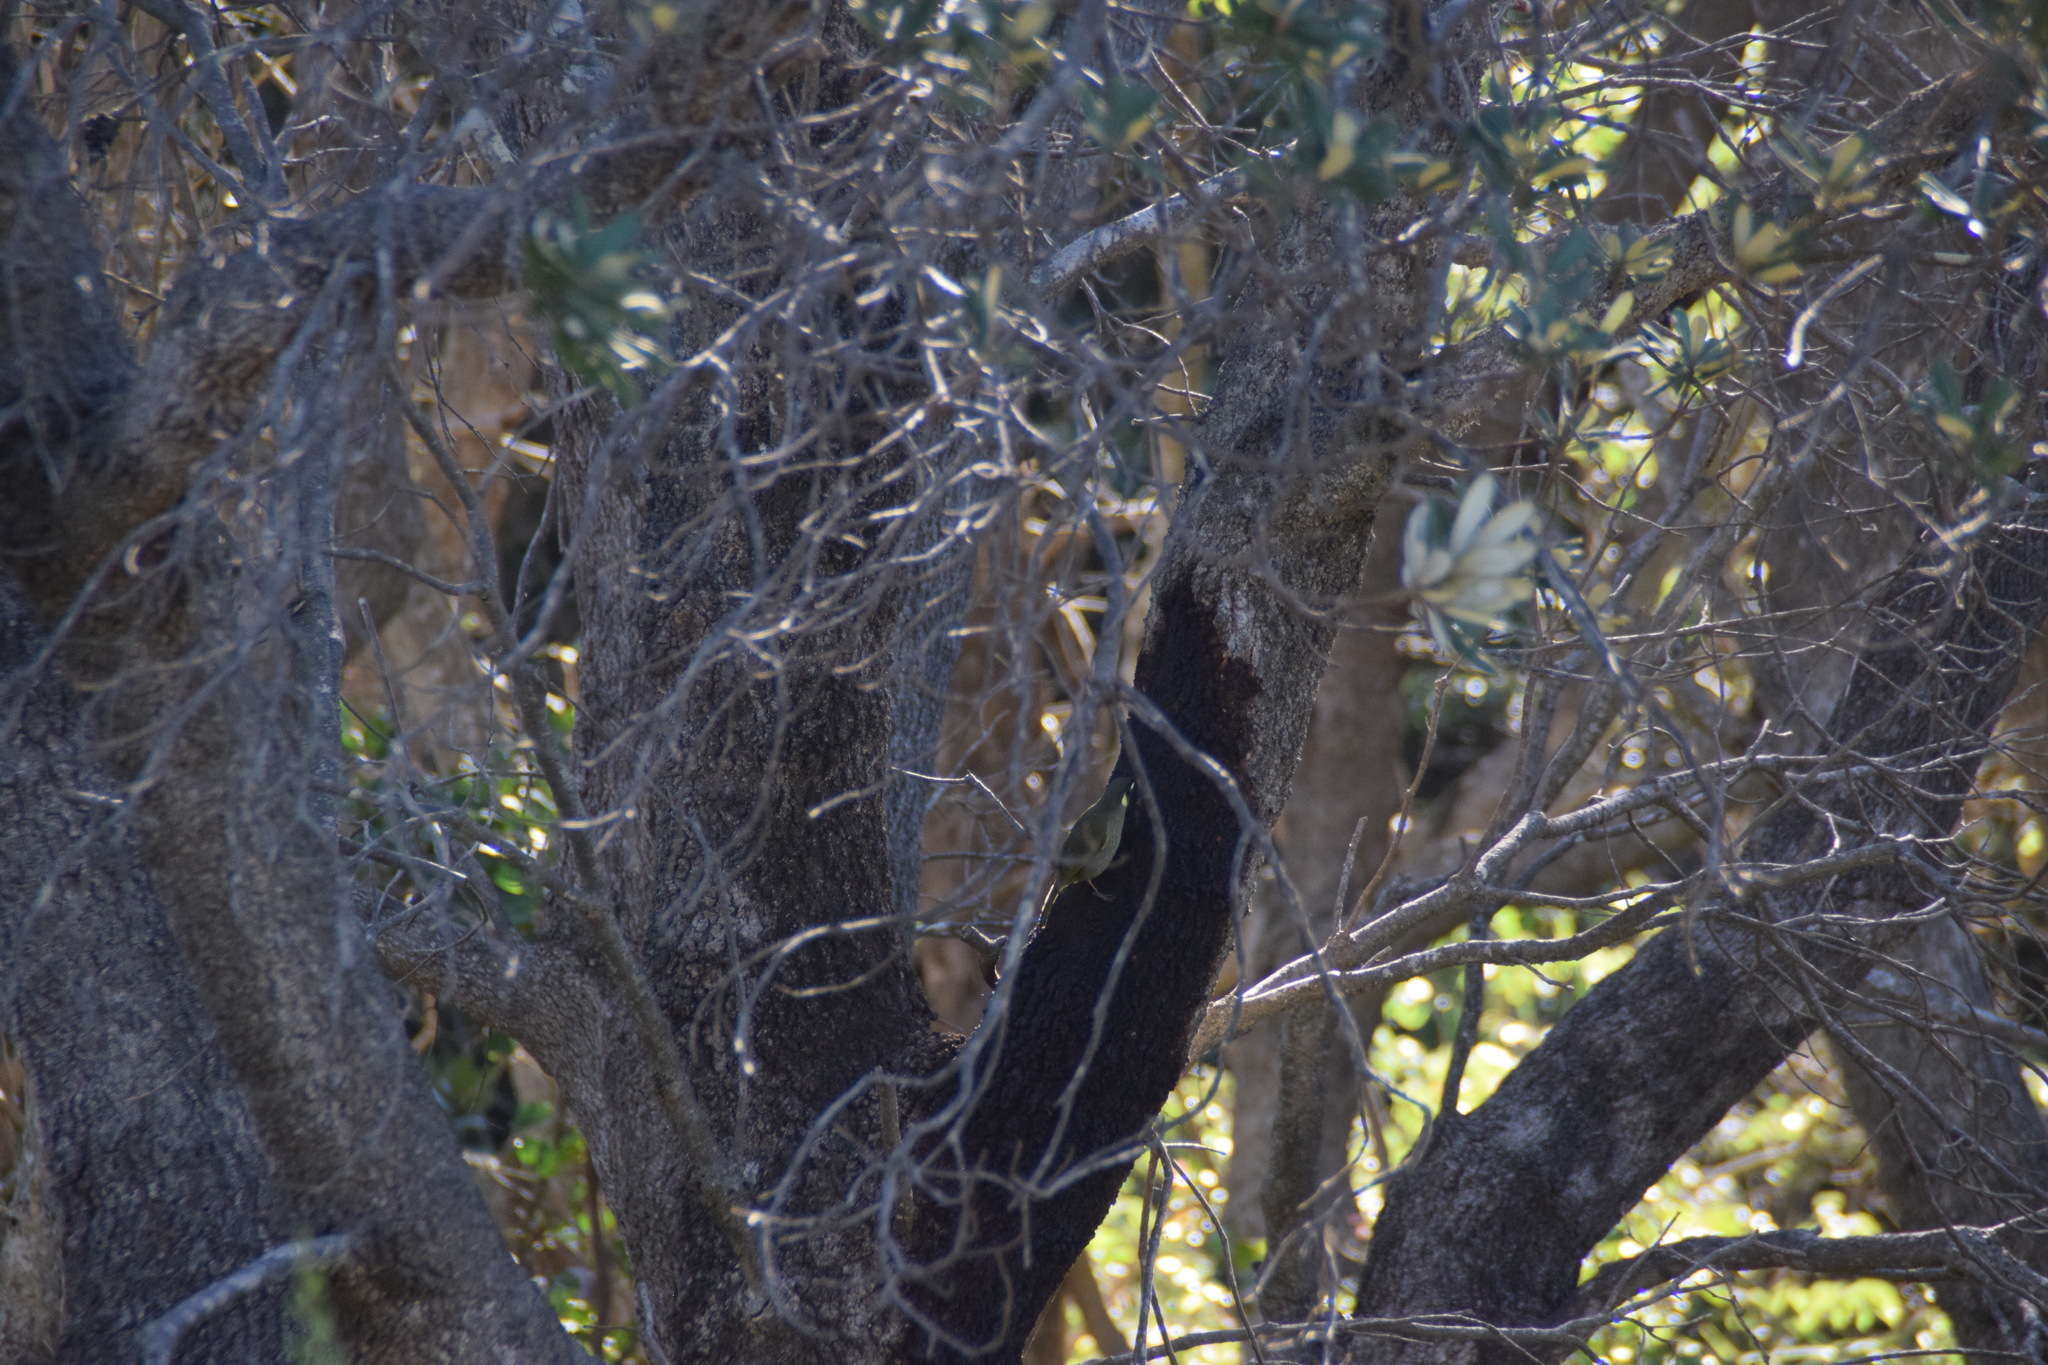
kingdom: Animalia
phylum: Chordata
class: Aves
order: Passeriformes
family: Meliphagidae
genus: Meliphaga
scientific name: Meliphaga lewinii
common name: Lewin's honeyeater
